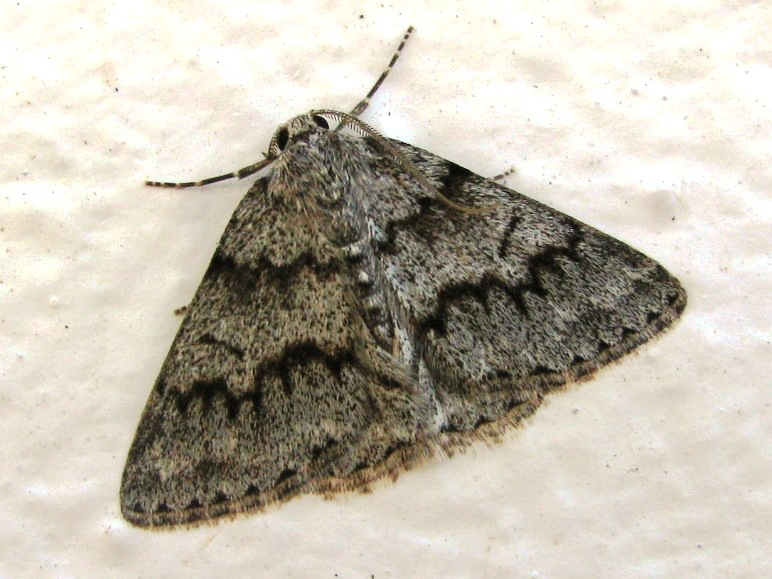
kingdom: Animalia
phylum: Arthropoda
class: Insecta
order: Lepidoptera
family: Geometridae
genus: Pseudoterpna
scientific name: Pseudoterpna coronillaria
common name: Jersey emerald
